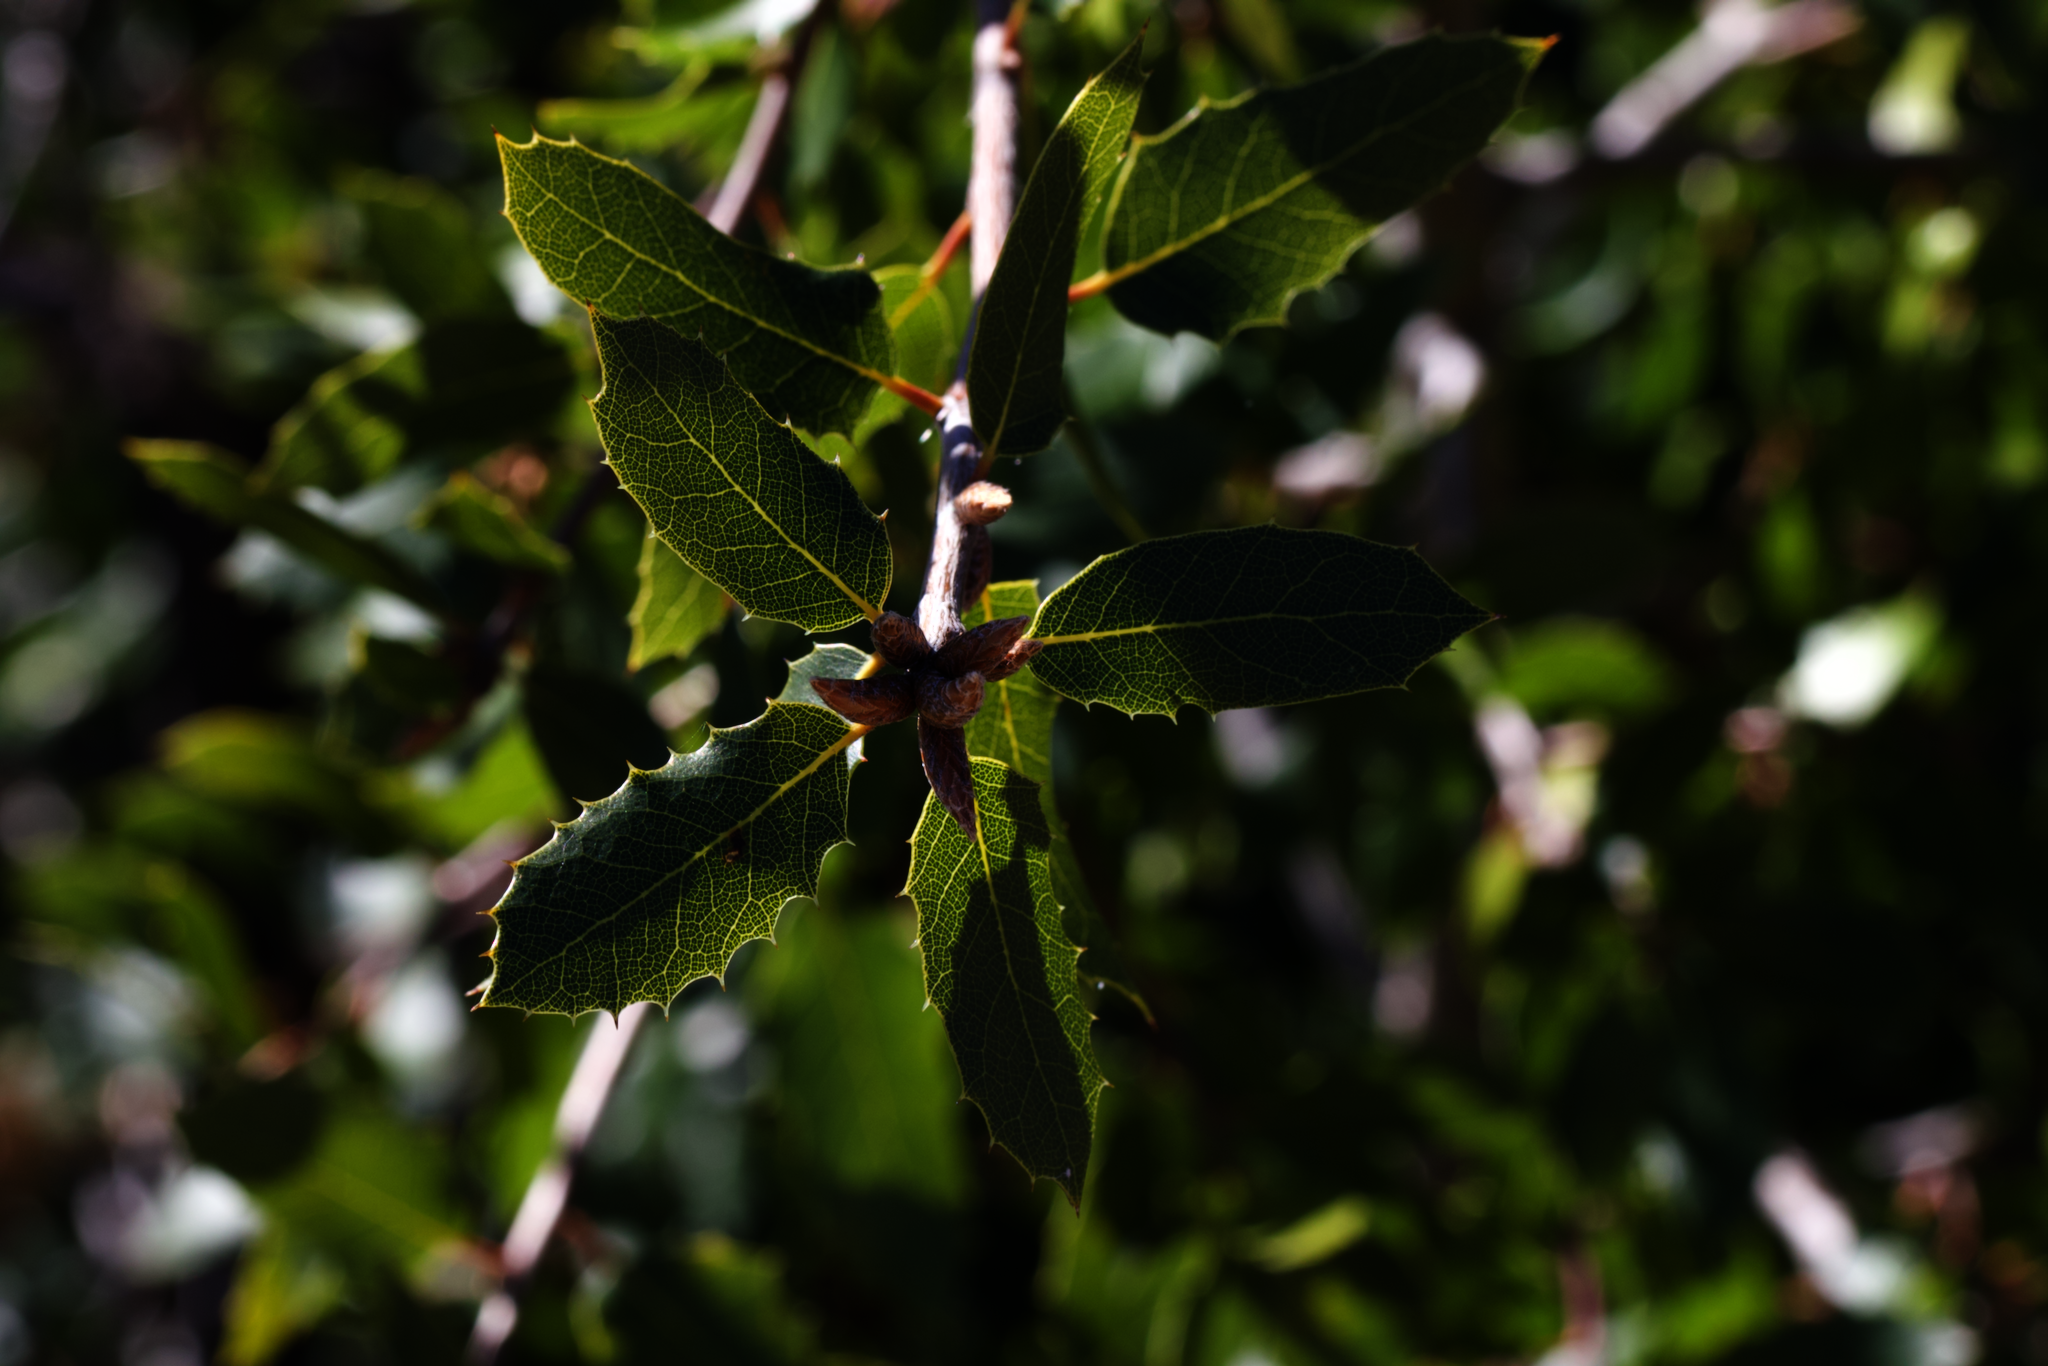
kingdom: Plantae
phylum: Tracheophyta
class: Magnoliopsida
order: Fagales
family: Fagaceae
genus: Quercus
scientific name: Quercus wislizeni
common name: Interior live oak
